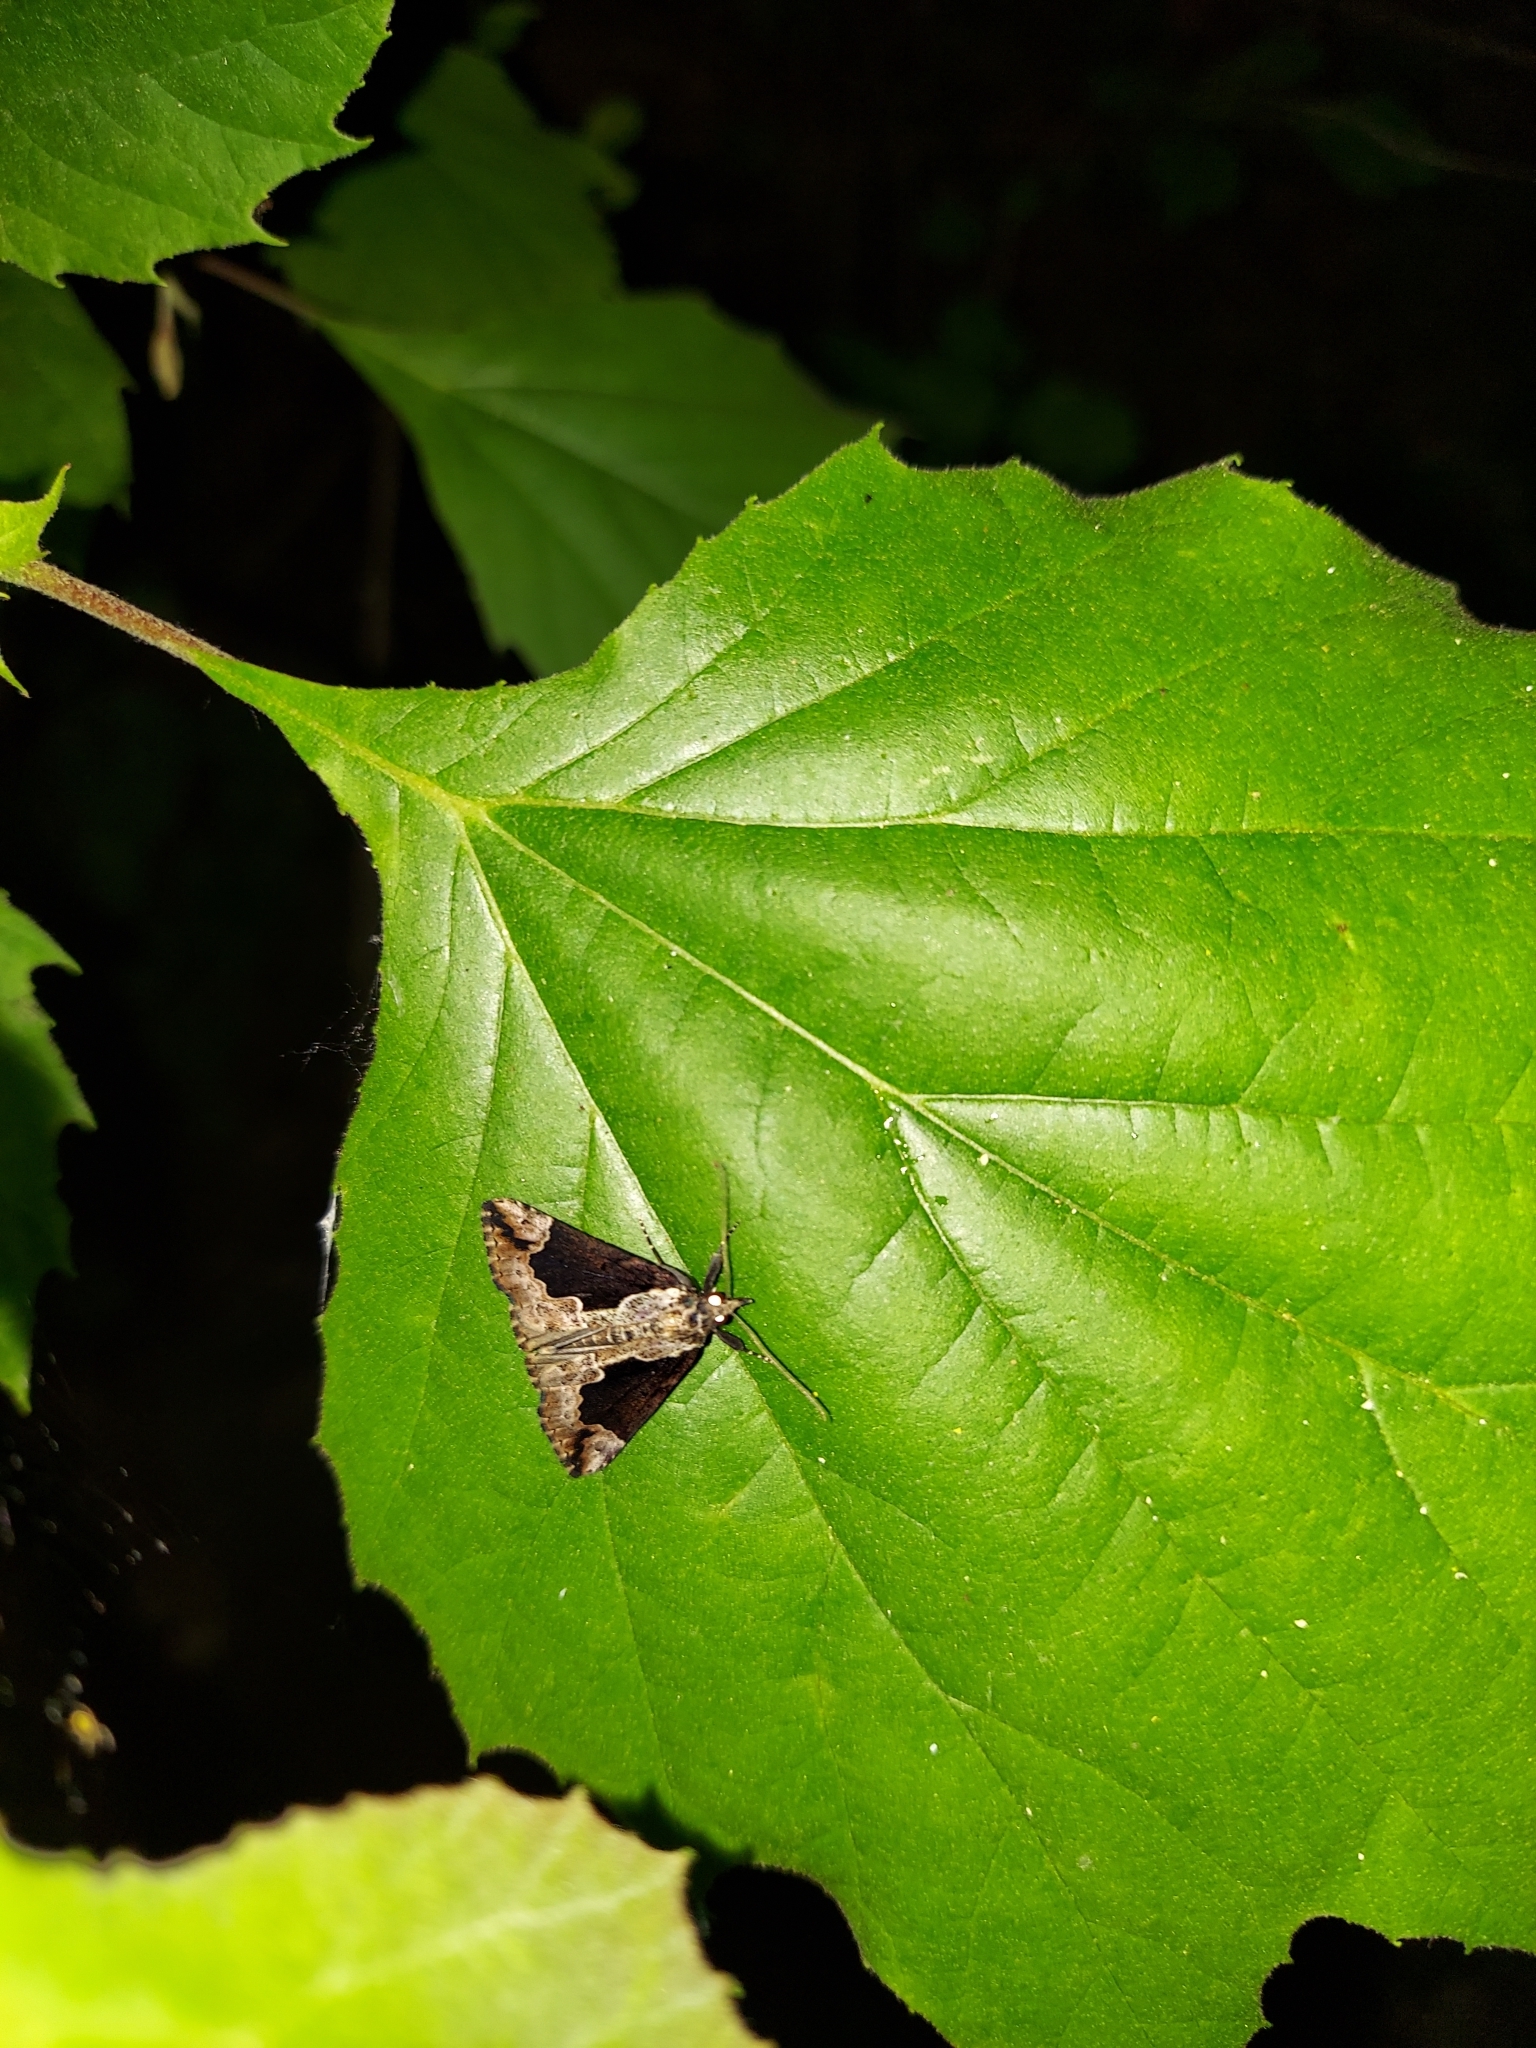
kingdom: Animalia
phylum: Arthropoda
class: Insecta
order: Lepidoptera
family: Erebidae
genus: Hypena
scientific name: Hypena baltimoralis
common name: Baltimore snout
